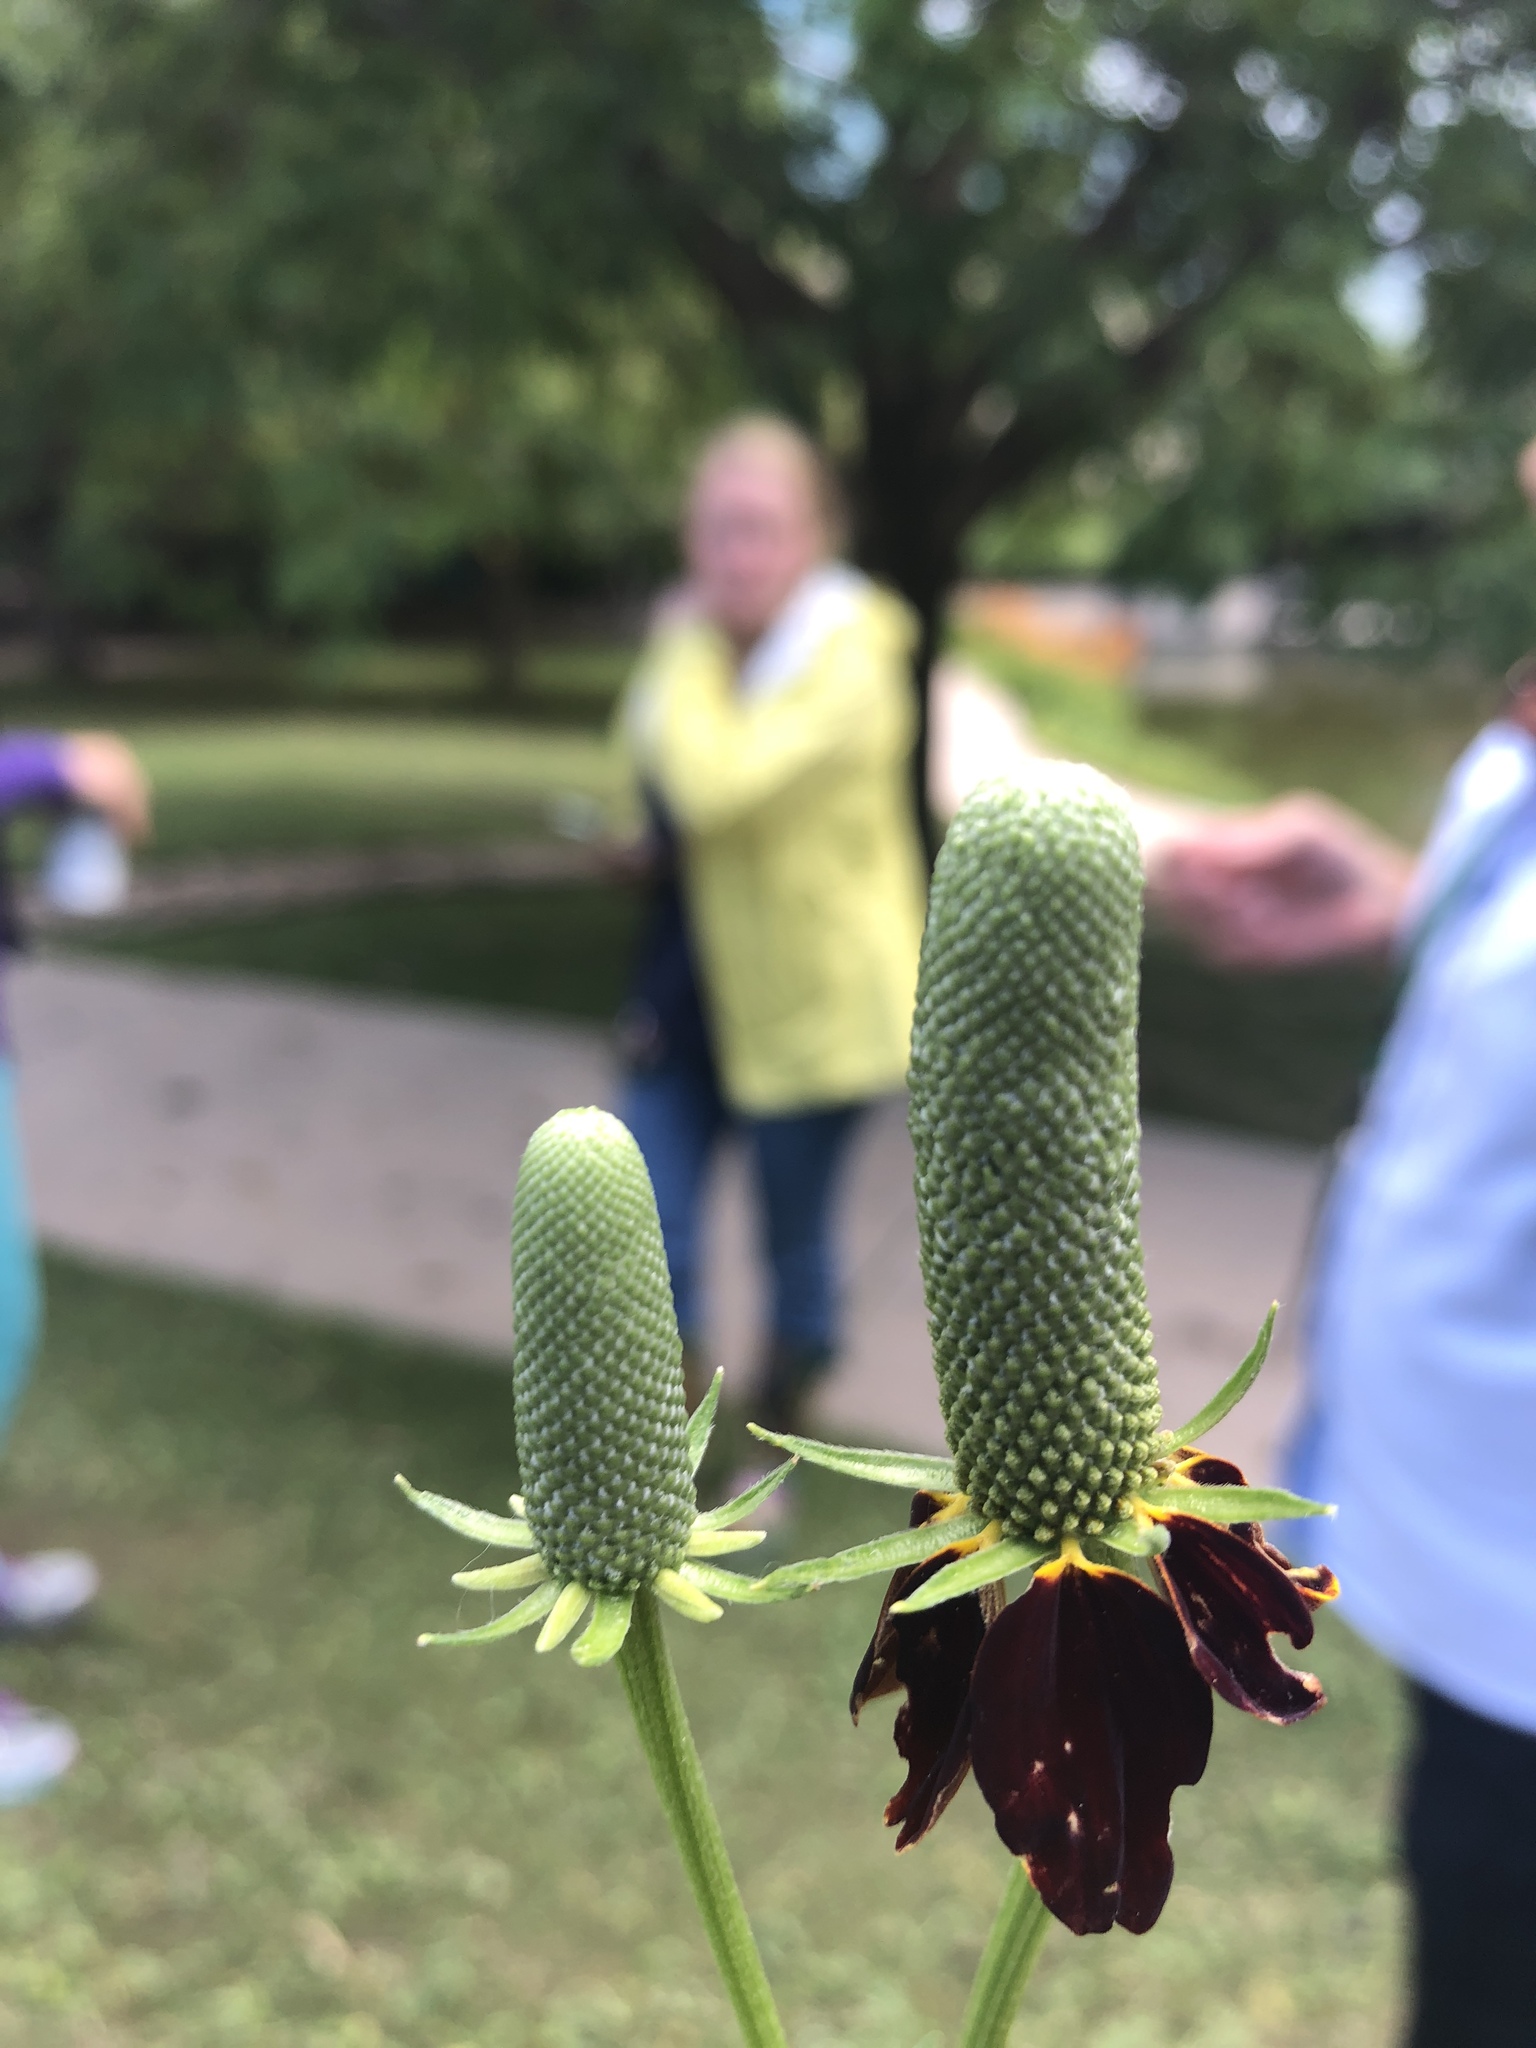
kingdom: Plantae
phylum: Tracheophyta
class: Magnoliopsida
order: Asterales
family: Asteraceae
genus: Ratibida
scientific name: Ratibida columnifera
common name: Prairie coneflower
